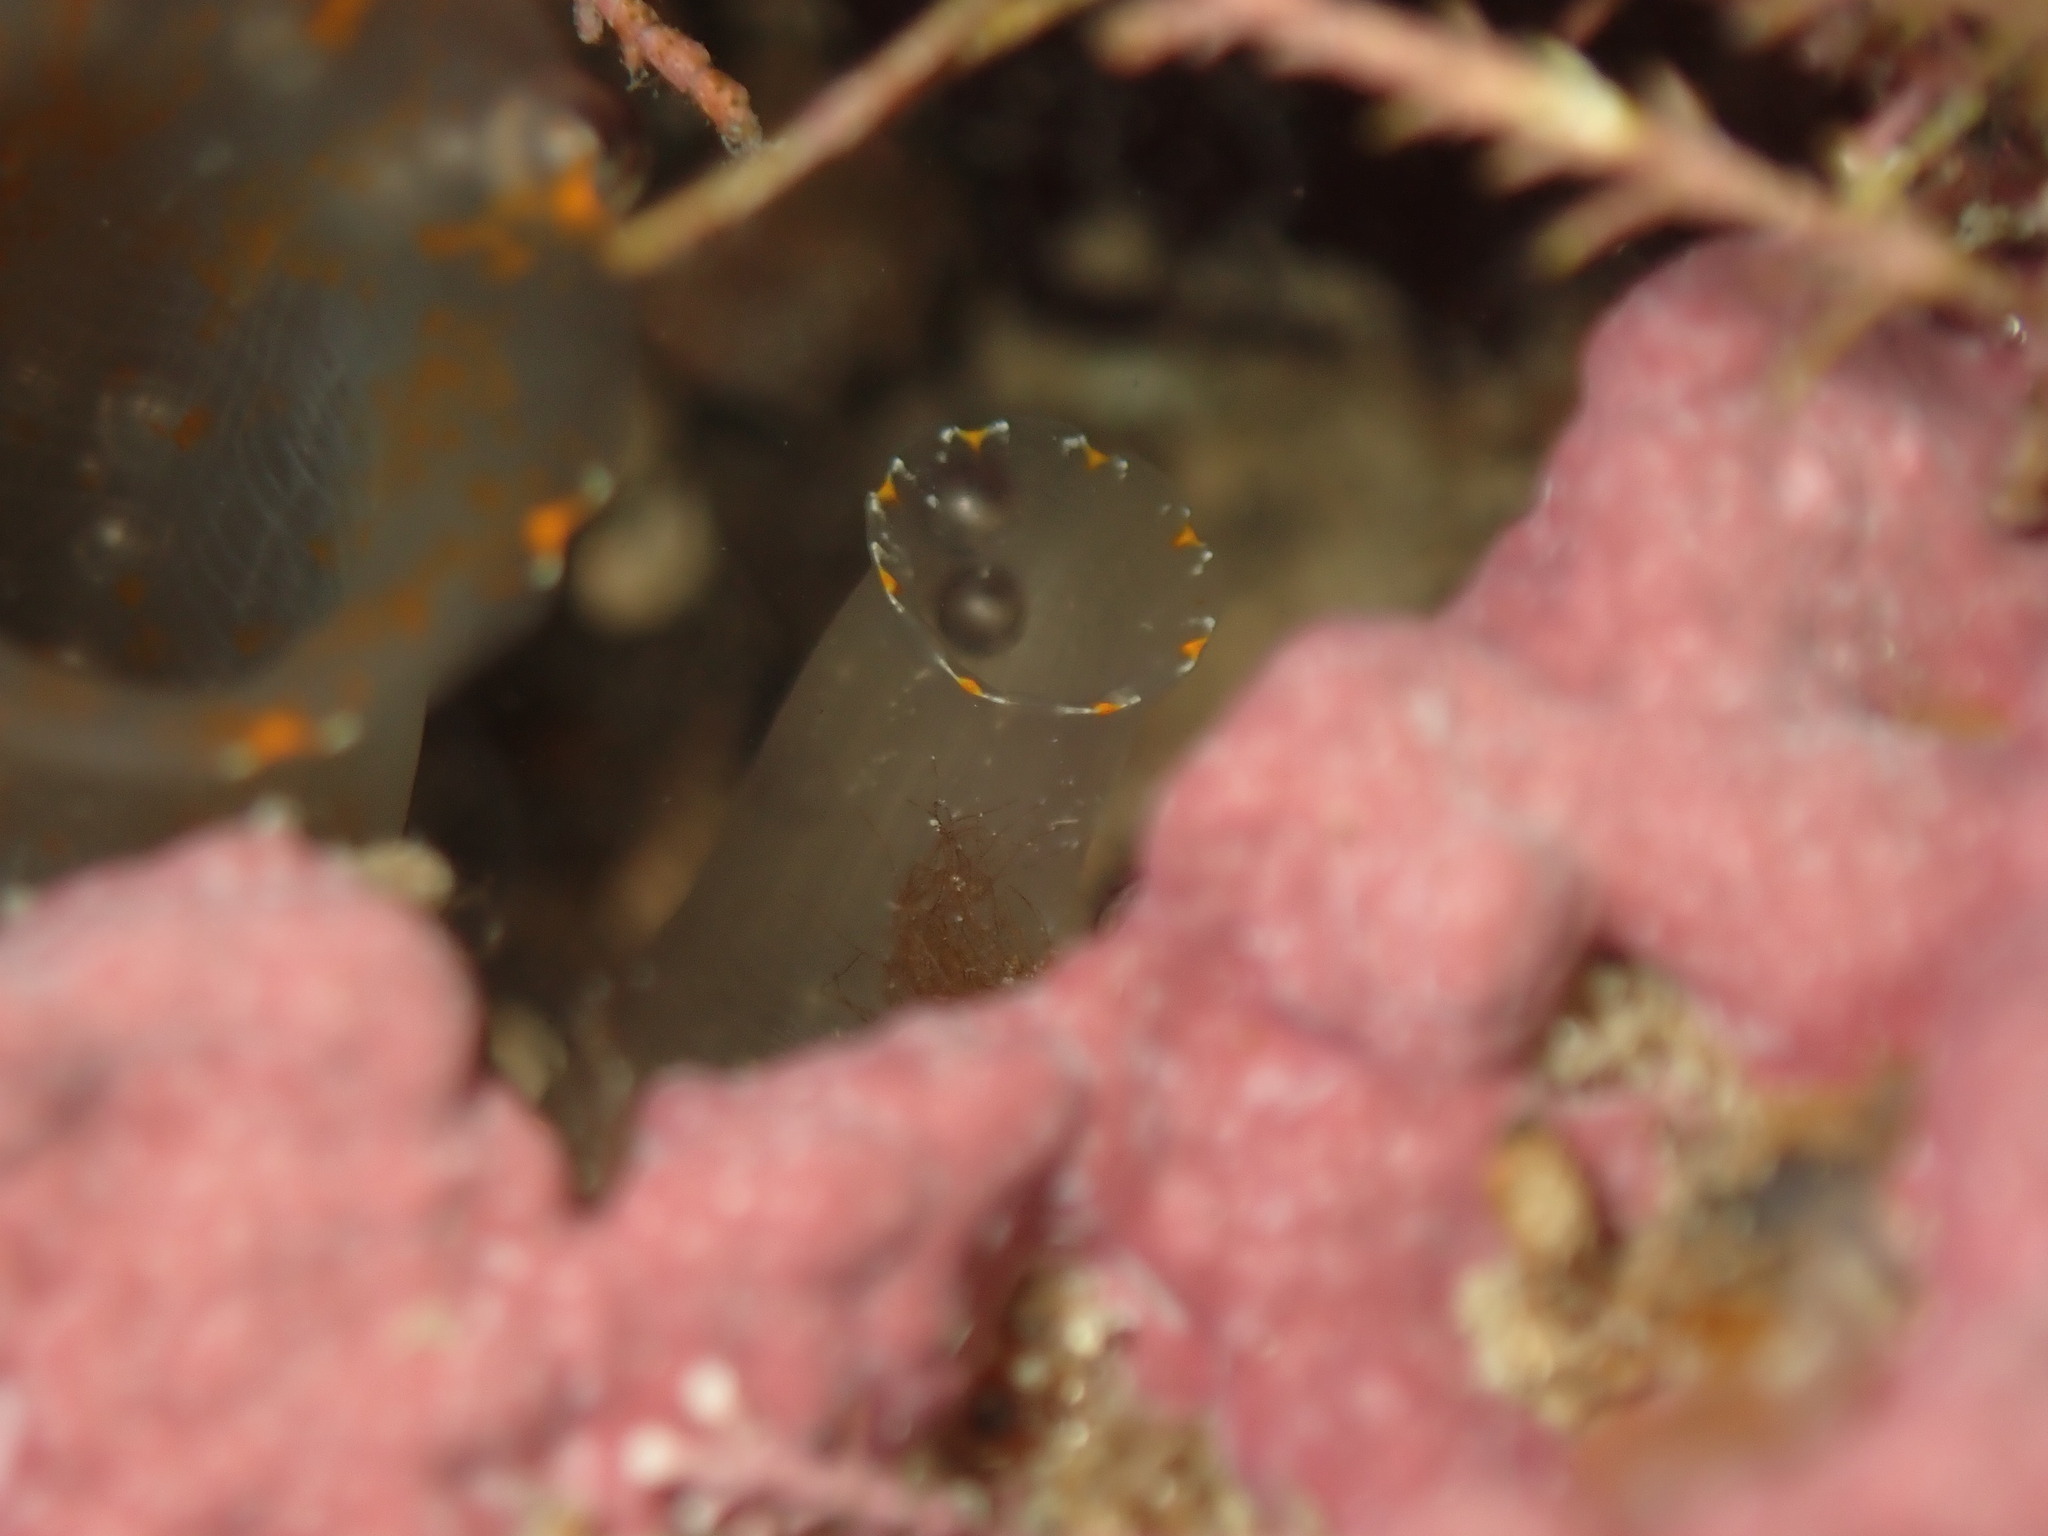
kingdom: Animalia
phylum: Chordata
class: Ascidiacea
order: Phlebobranchia
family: Cionidae
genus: Ciona
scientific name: Ciona savignyi
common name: Tunicate
